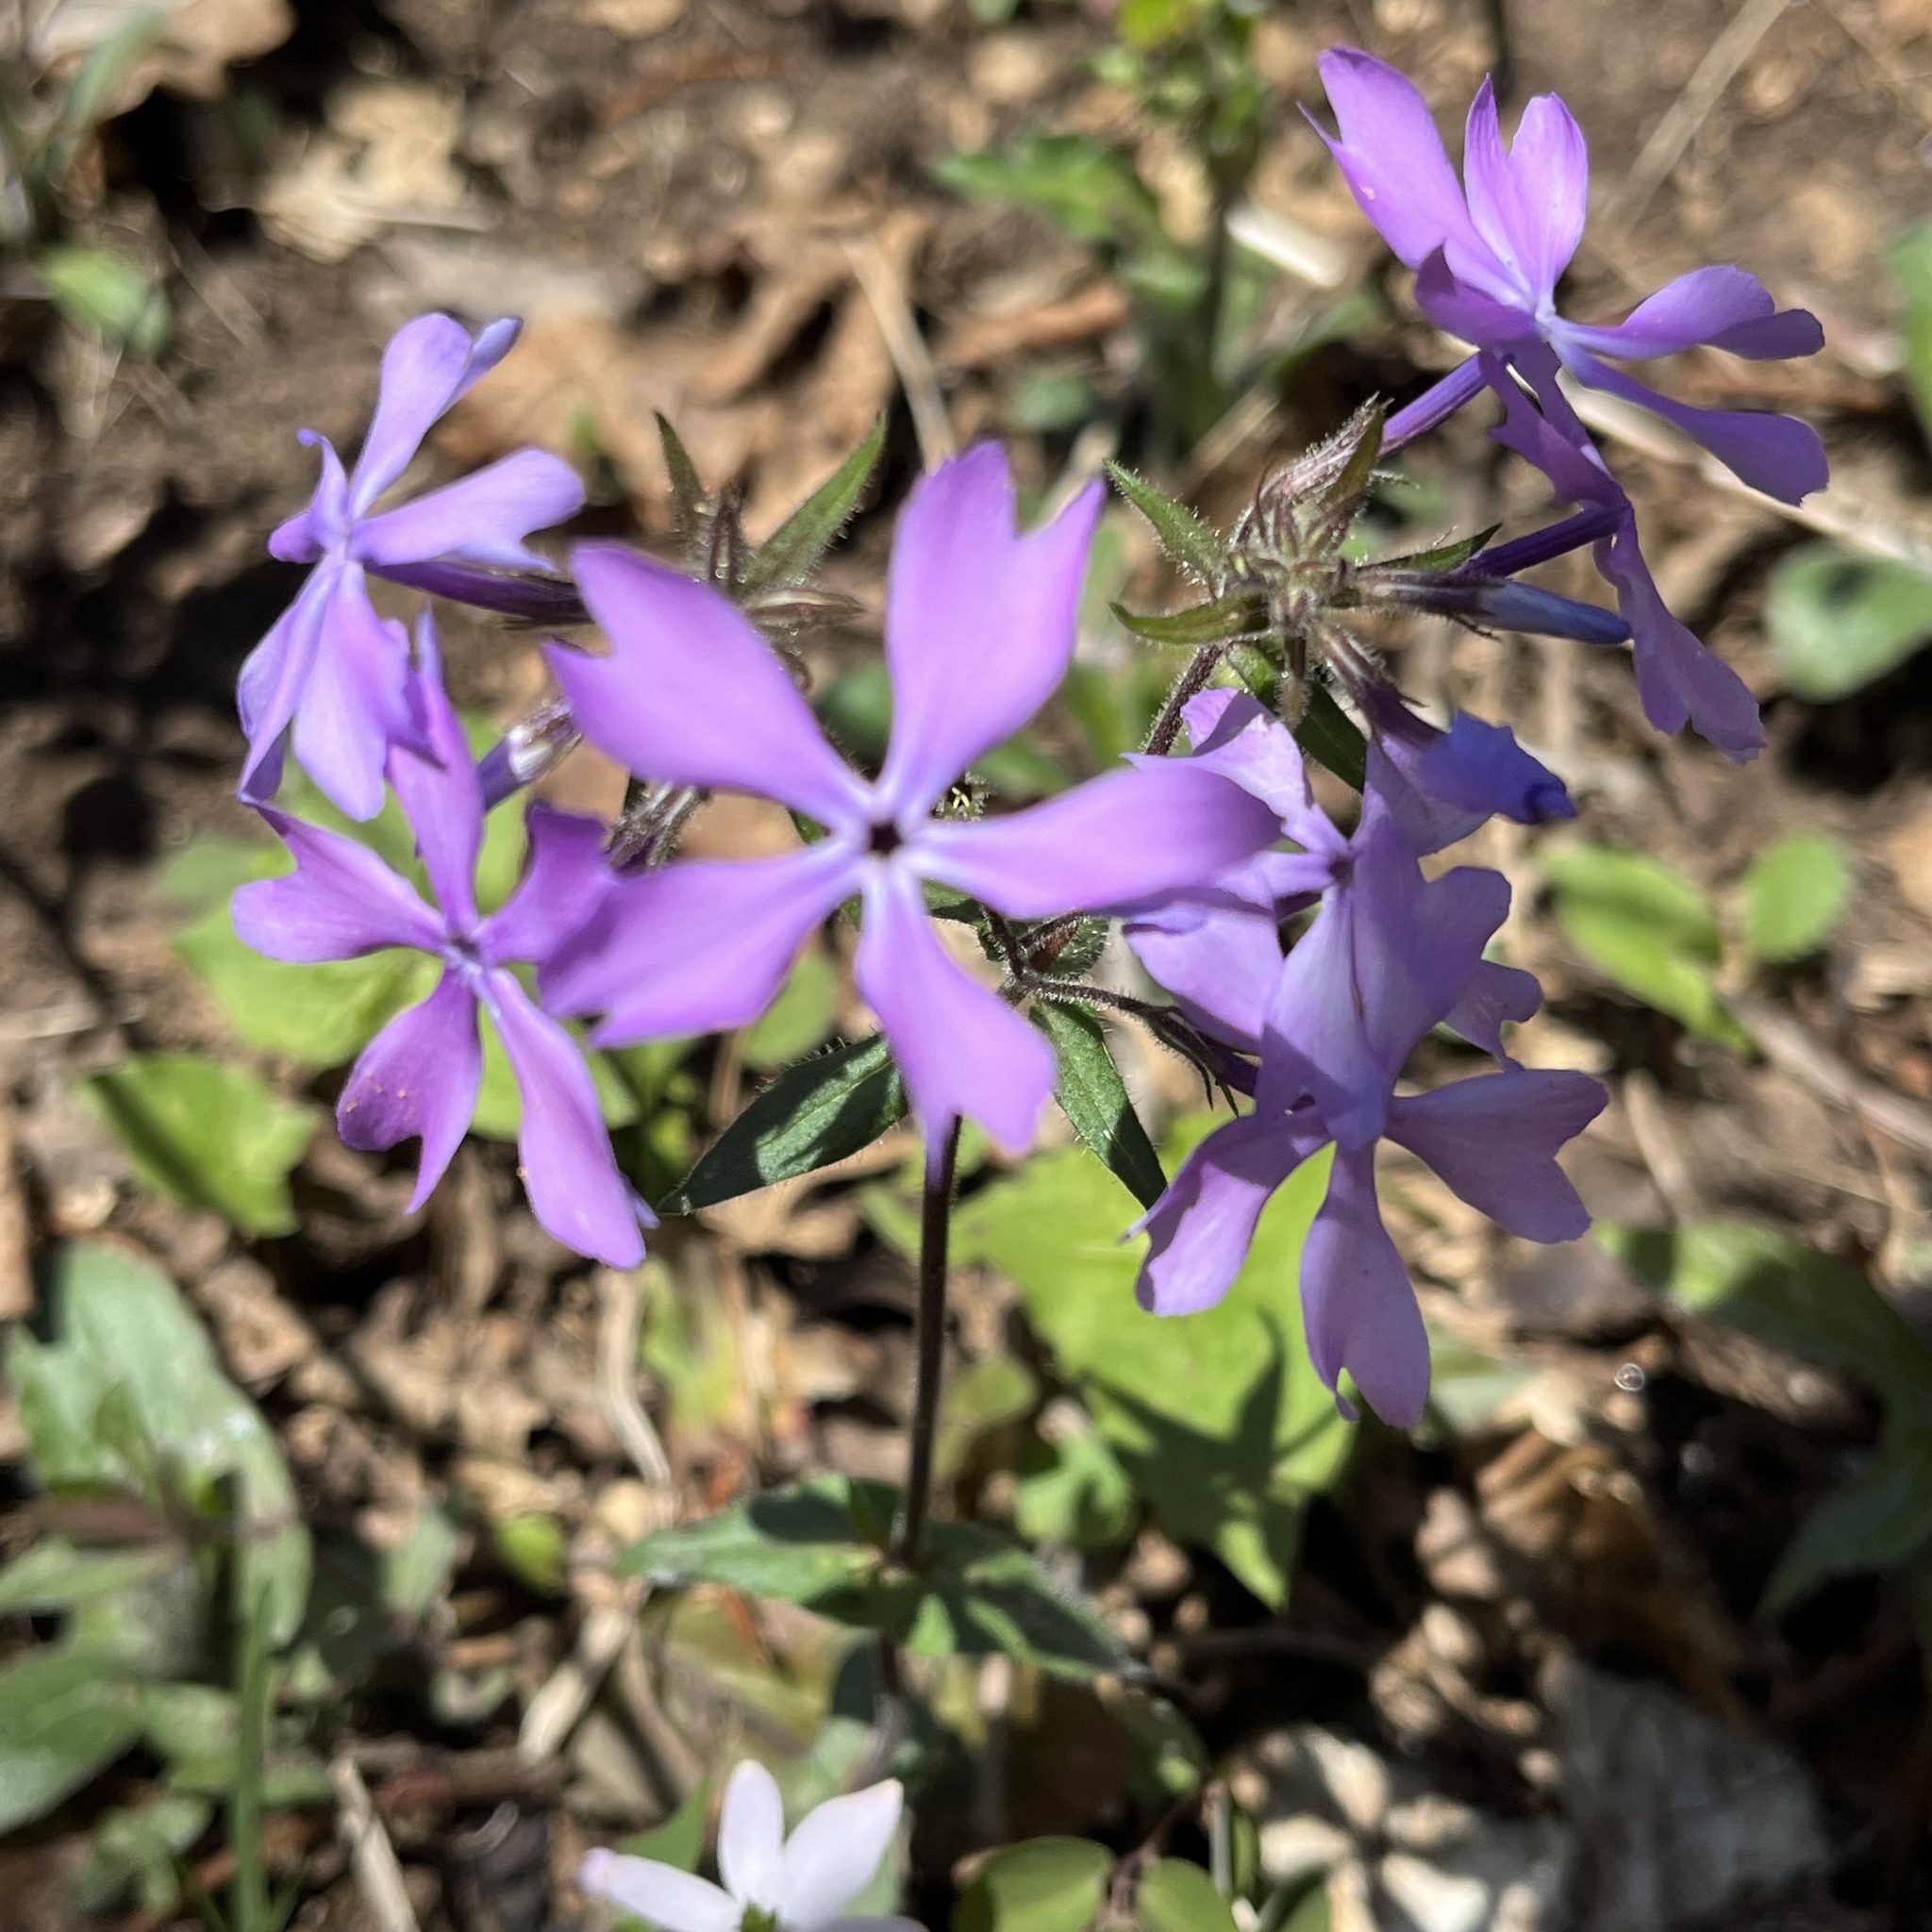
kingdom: Plantae
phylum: Tracheophyta
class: Magnoliopsida
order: Ericales
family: Polemoniaceae
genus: Phlox
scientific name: Phlox divaricata
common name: Blue phlox
